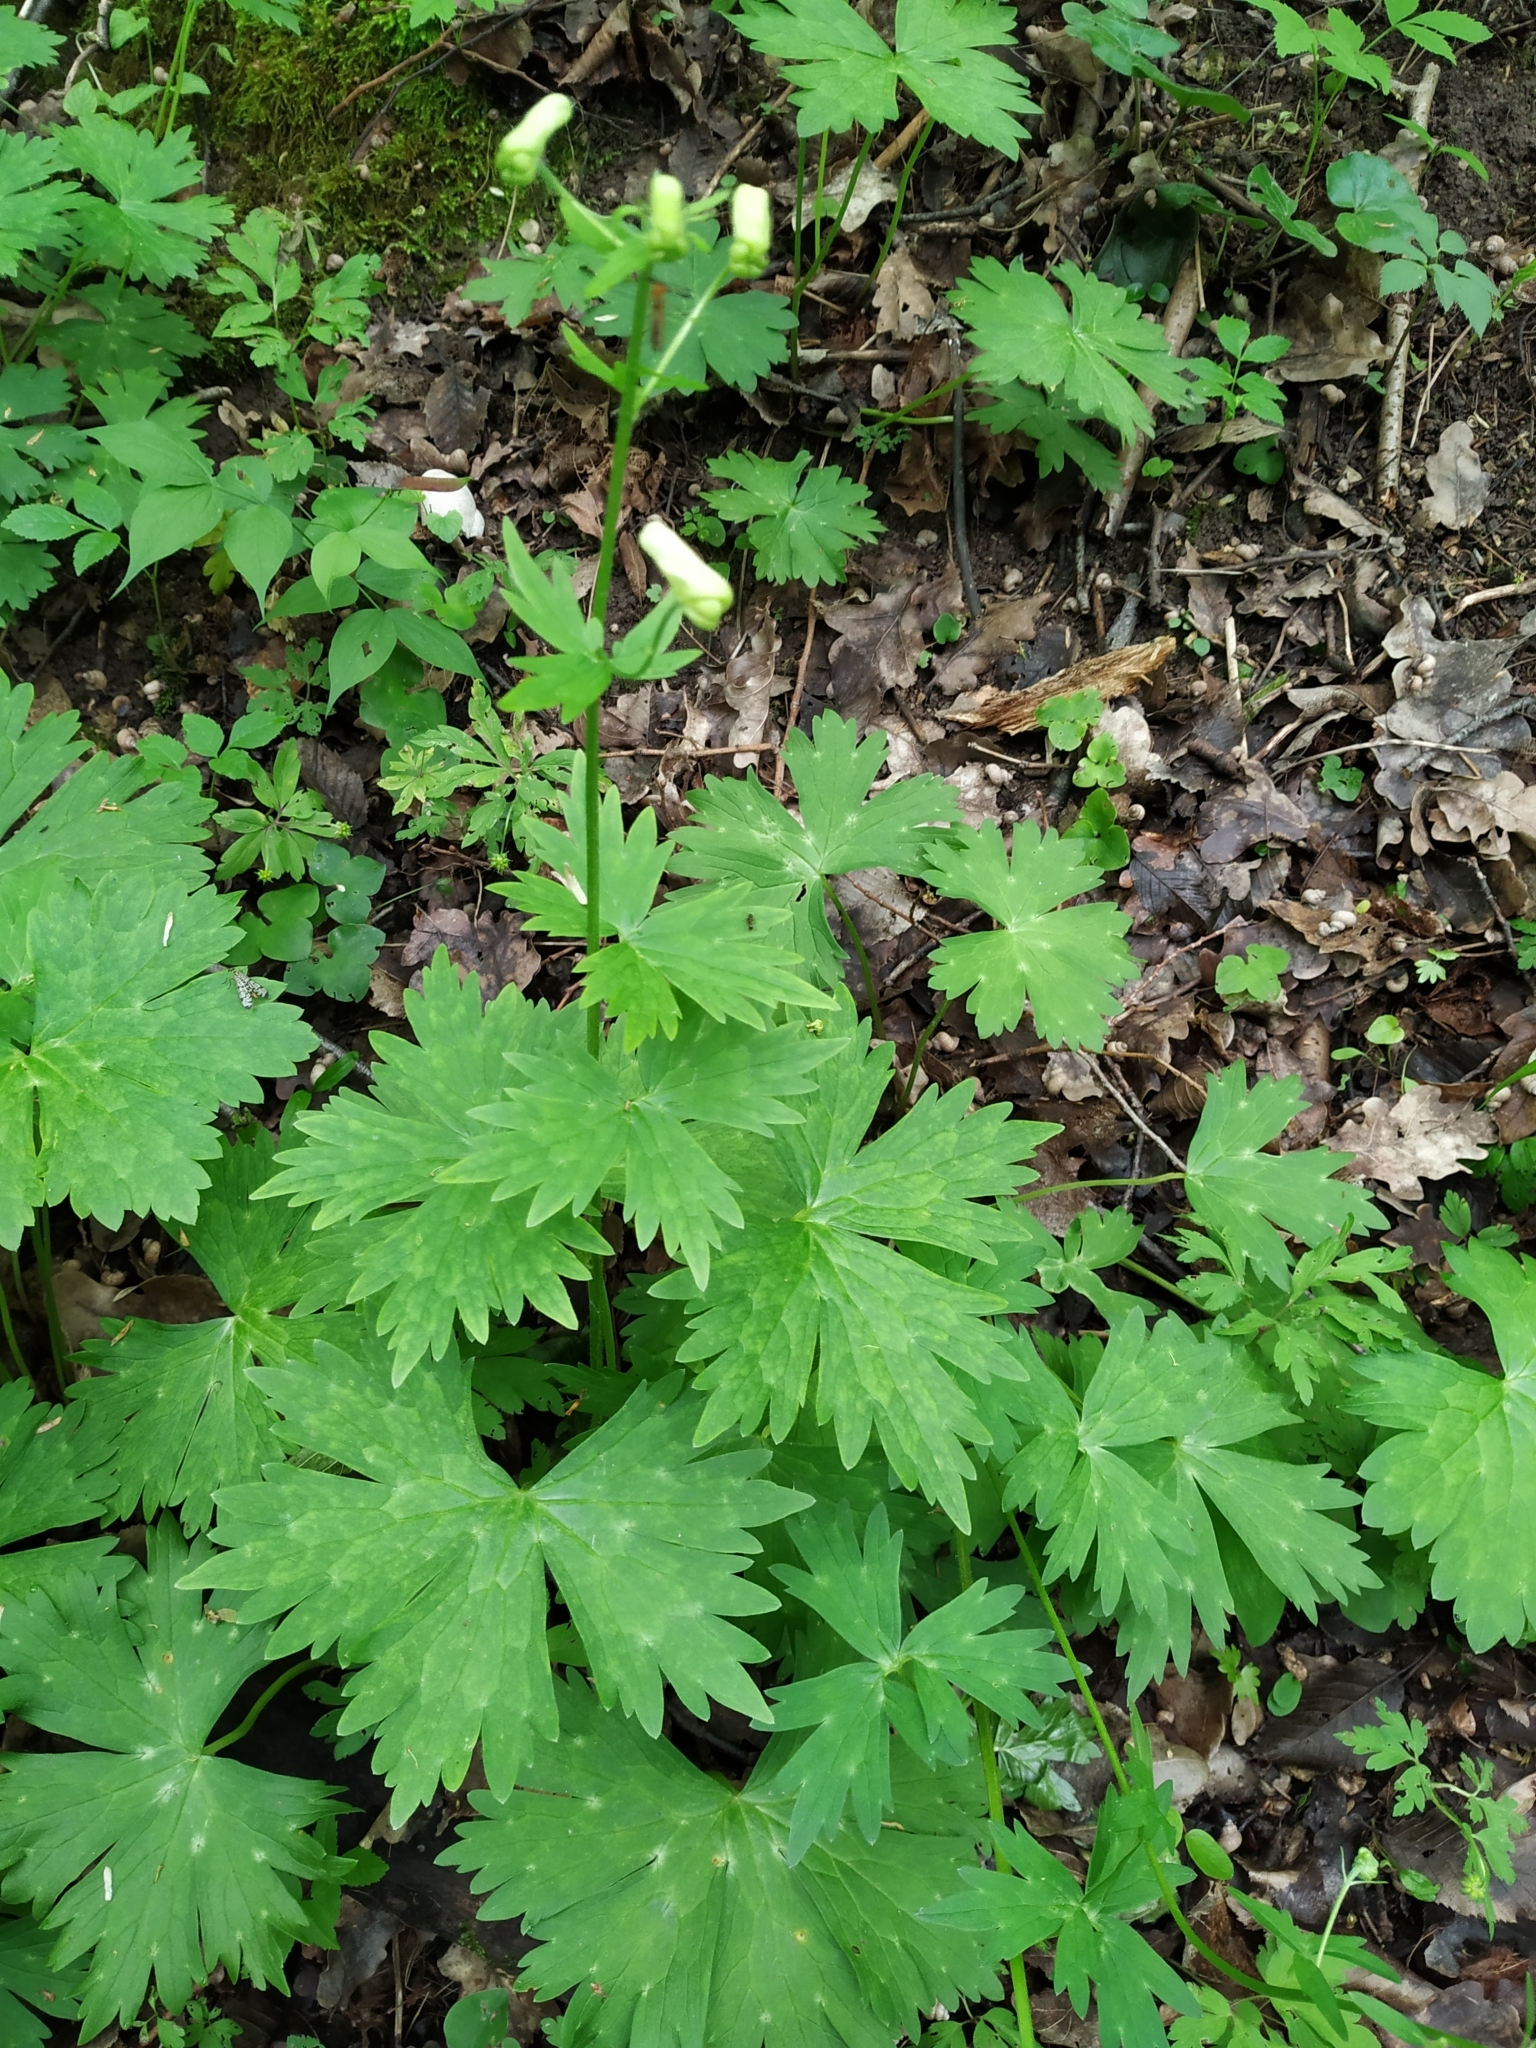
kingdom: Plantae
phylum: Tracheophyta
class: Magnoliopsida
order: Ranunculales
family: Ranunculaceae
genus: Aconitum
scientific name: Aconitum lycoctonum
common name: Wolf's-bane
